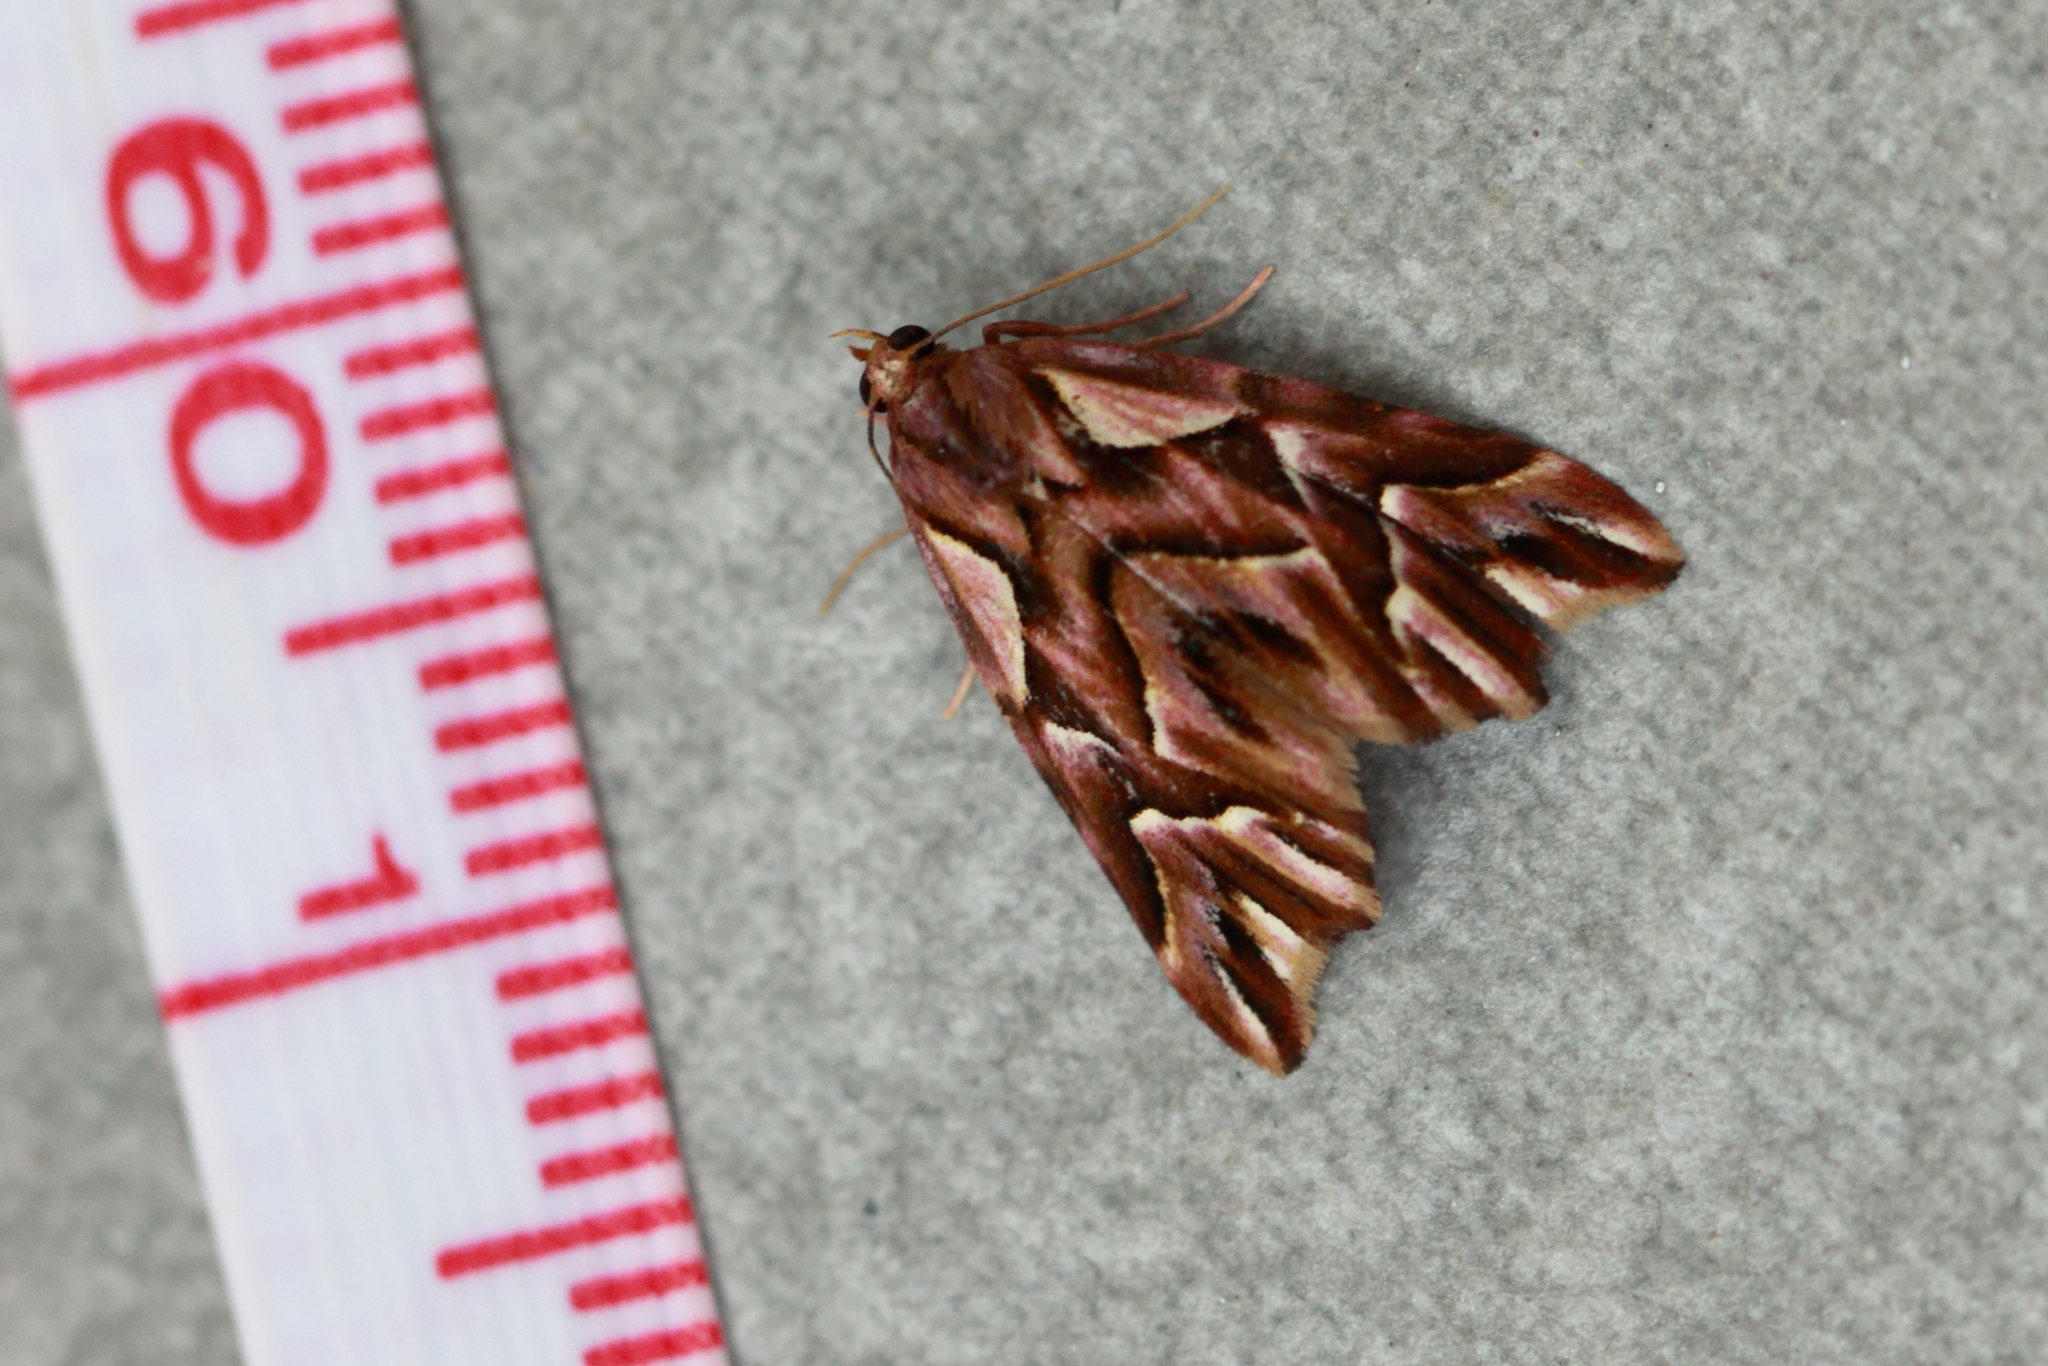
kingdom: Animalia
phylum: Arthropoda
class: Insecta
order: Lepidoptera
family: Noctuidae
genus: Clytoscopa
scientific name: Clytoscopa iorrhoda
